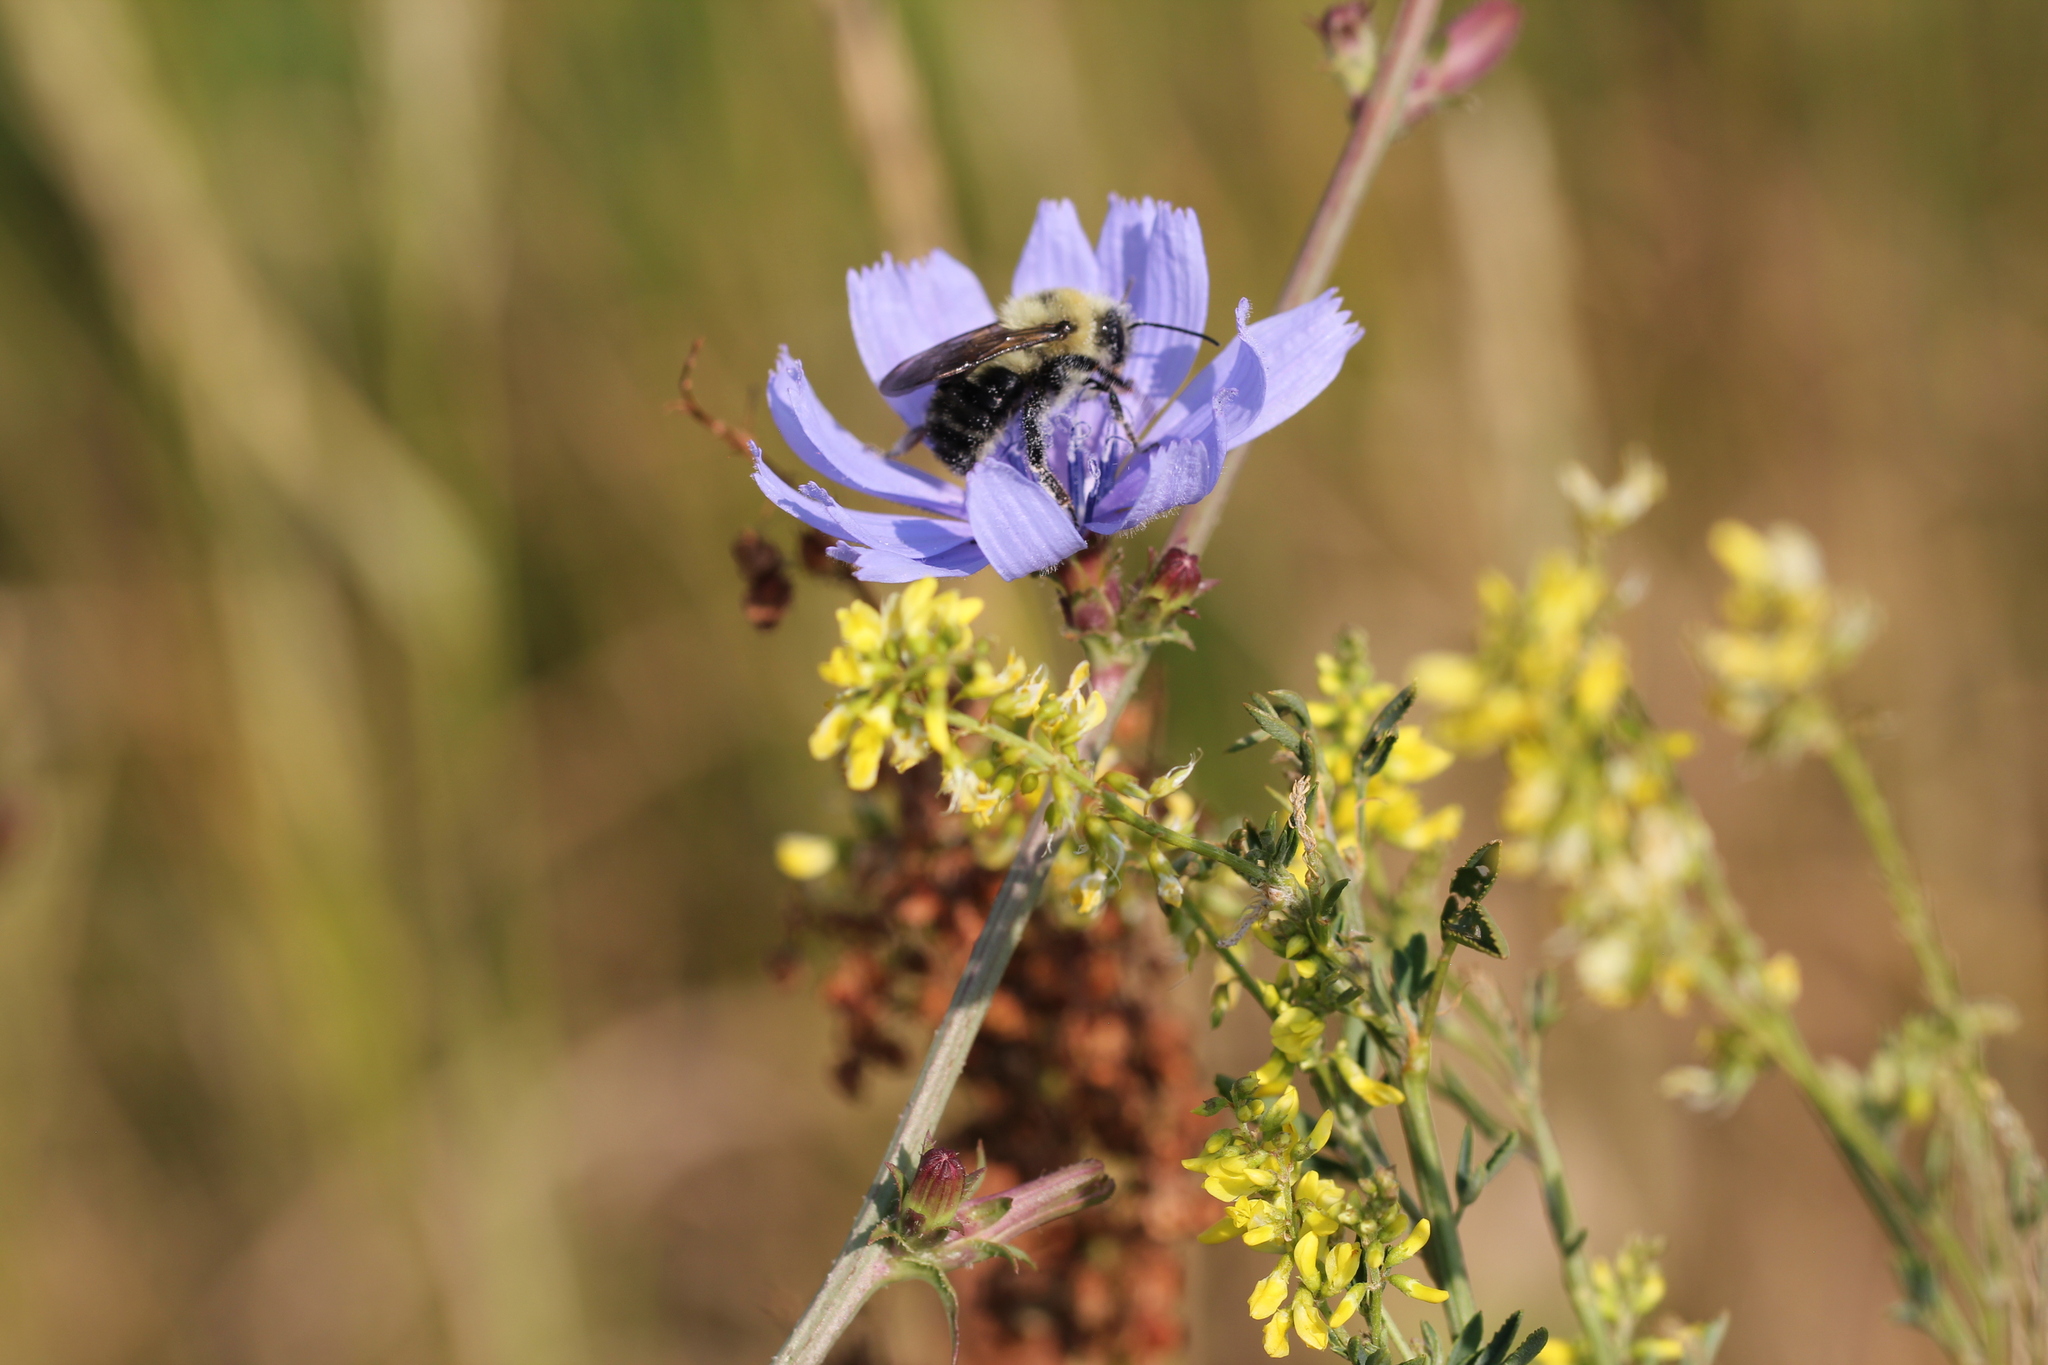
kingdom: Animalia
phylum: Arthropoda
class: Insecta
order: Hymenoptera
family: Apidae
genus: Bombus
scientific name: Bombus bimaculatus
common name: Two-spotted bumble bee
